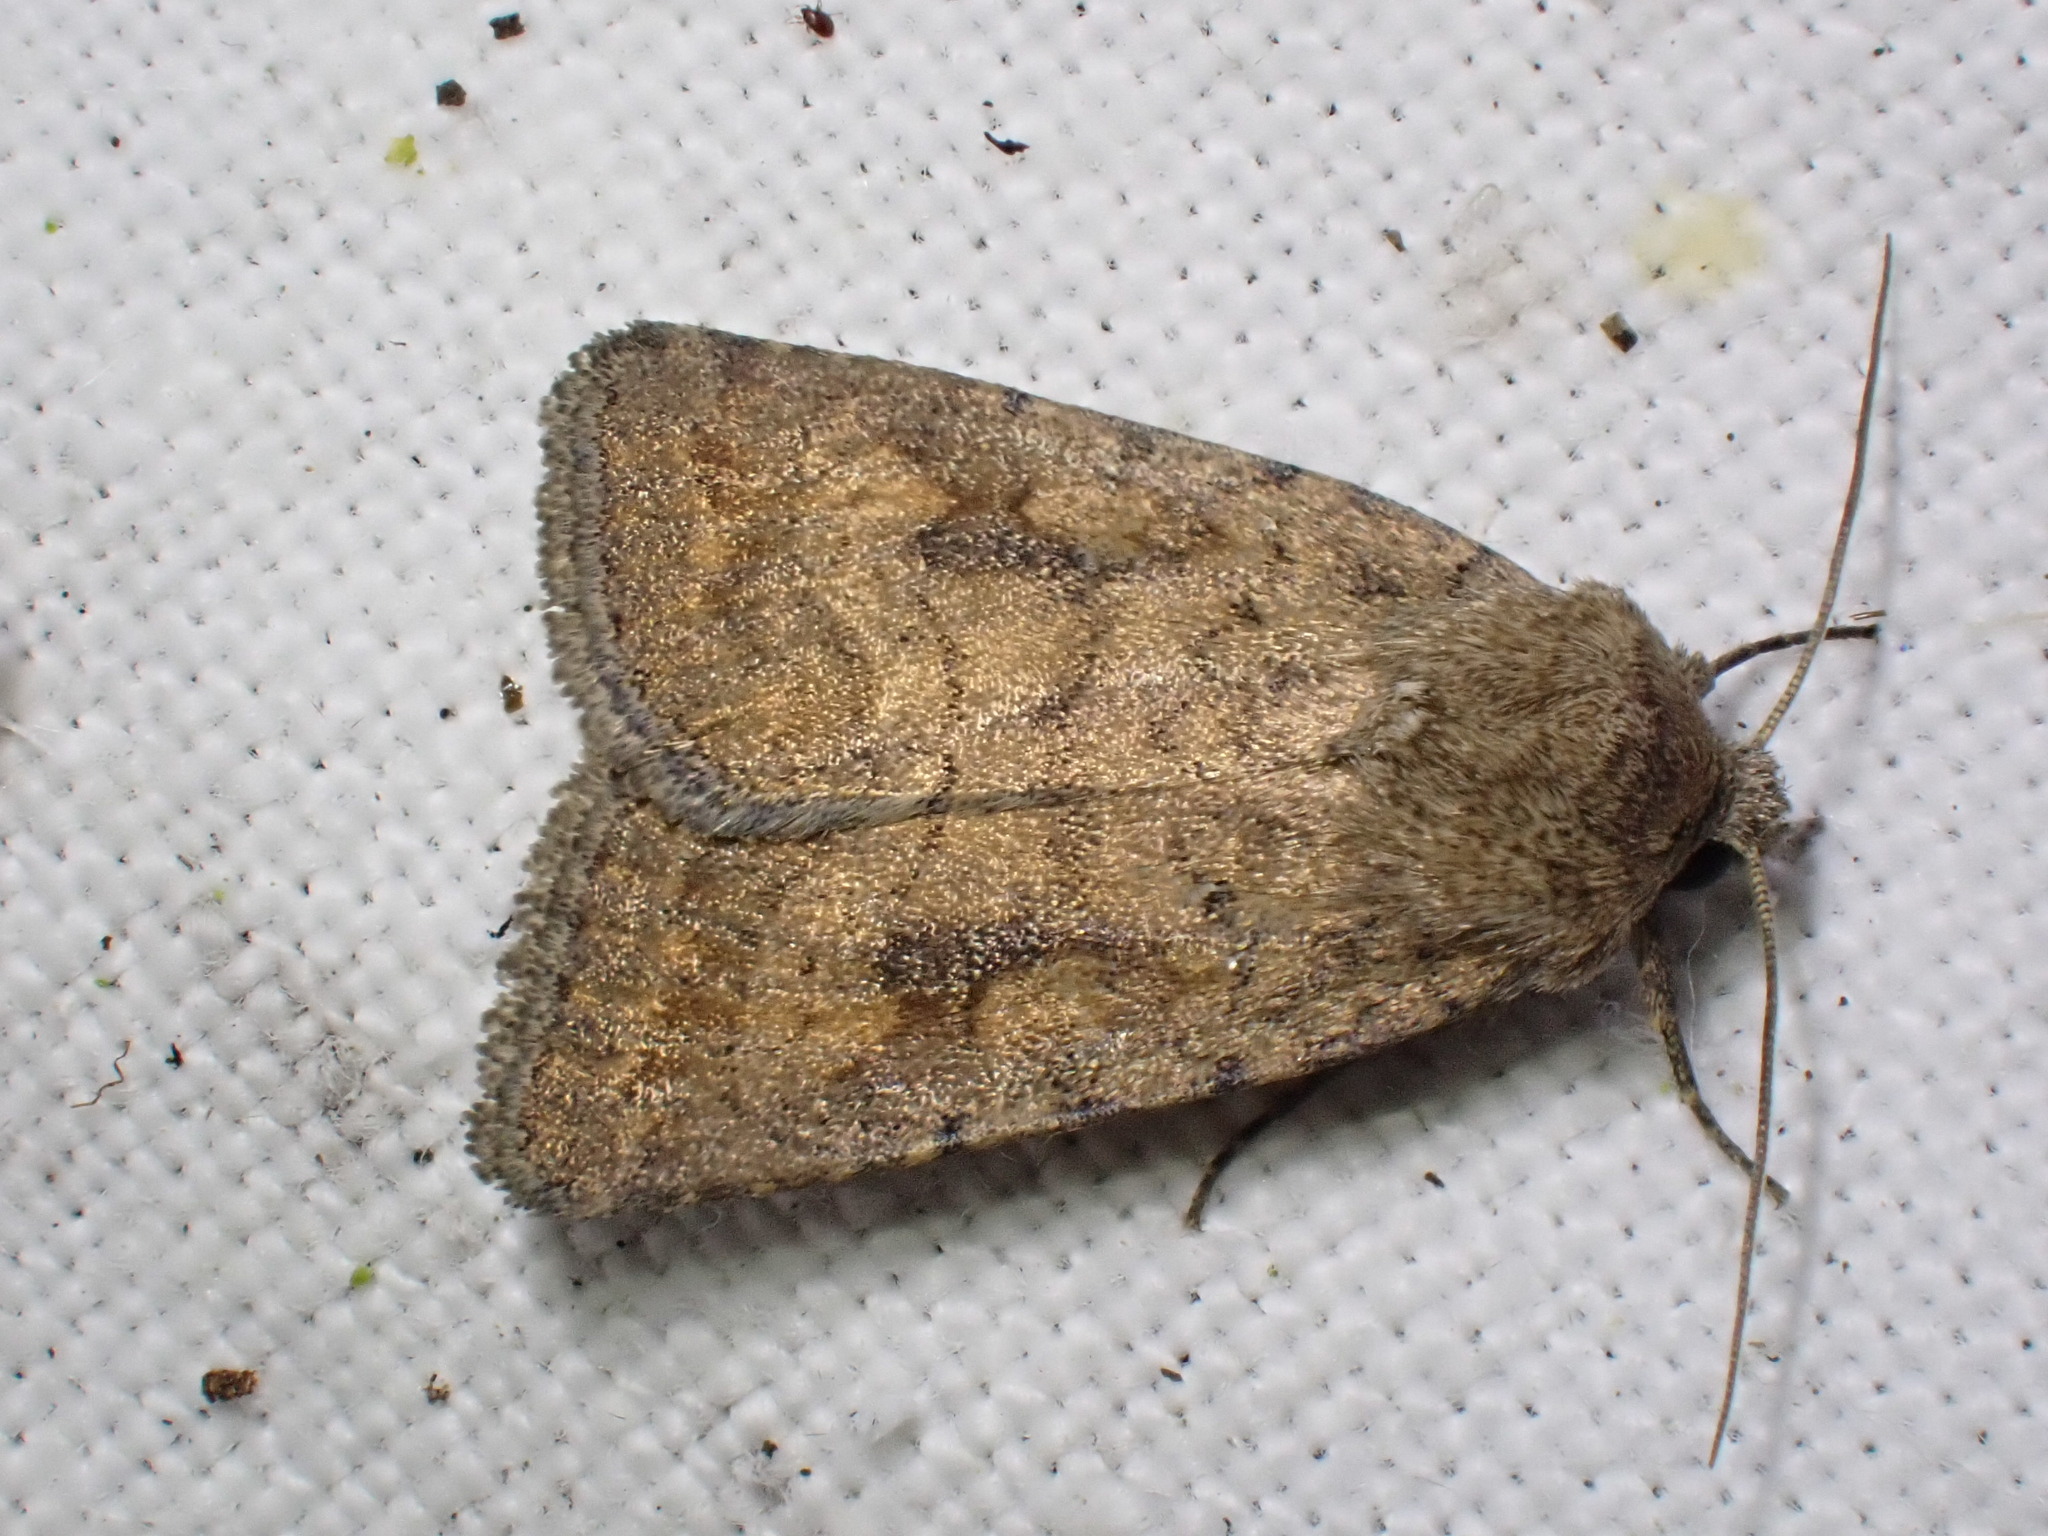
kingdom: Animalia
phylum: Arthropoda
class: Insecta
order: Lepidoptera
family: Noctuidae
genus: Caradrina
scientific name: Caradrina morpheus
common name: Mottled rustic
